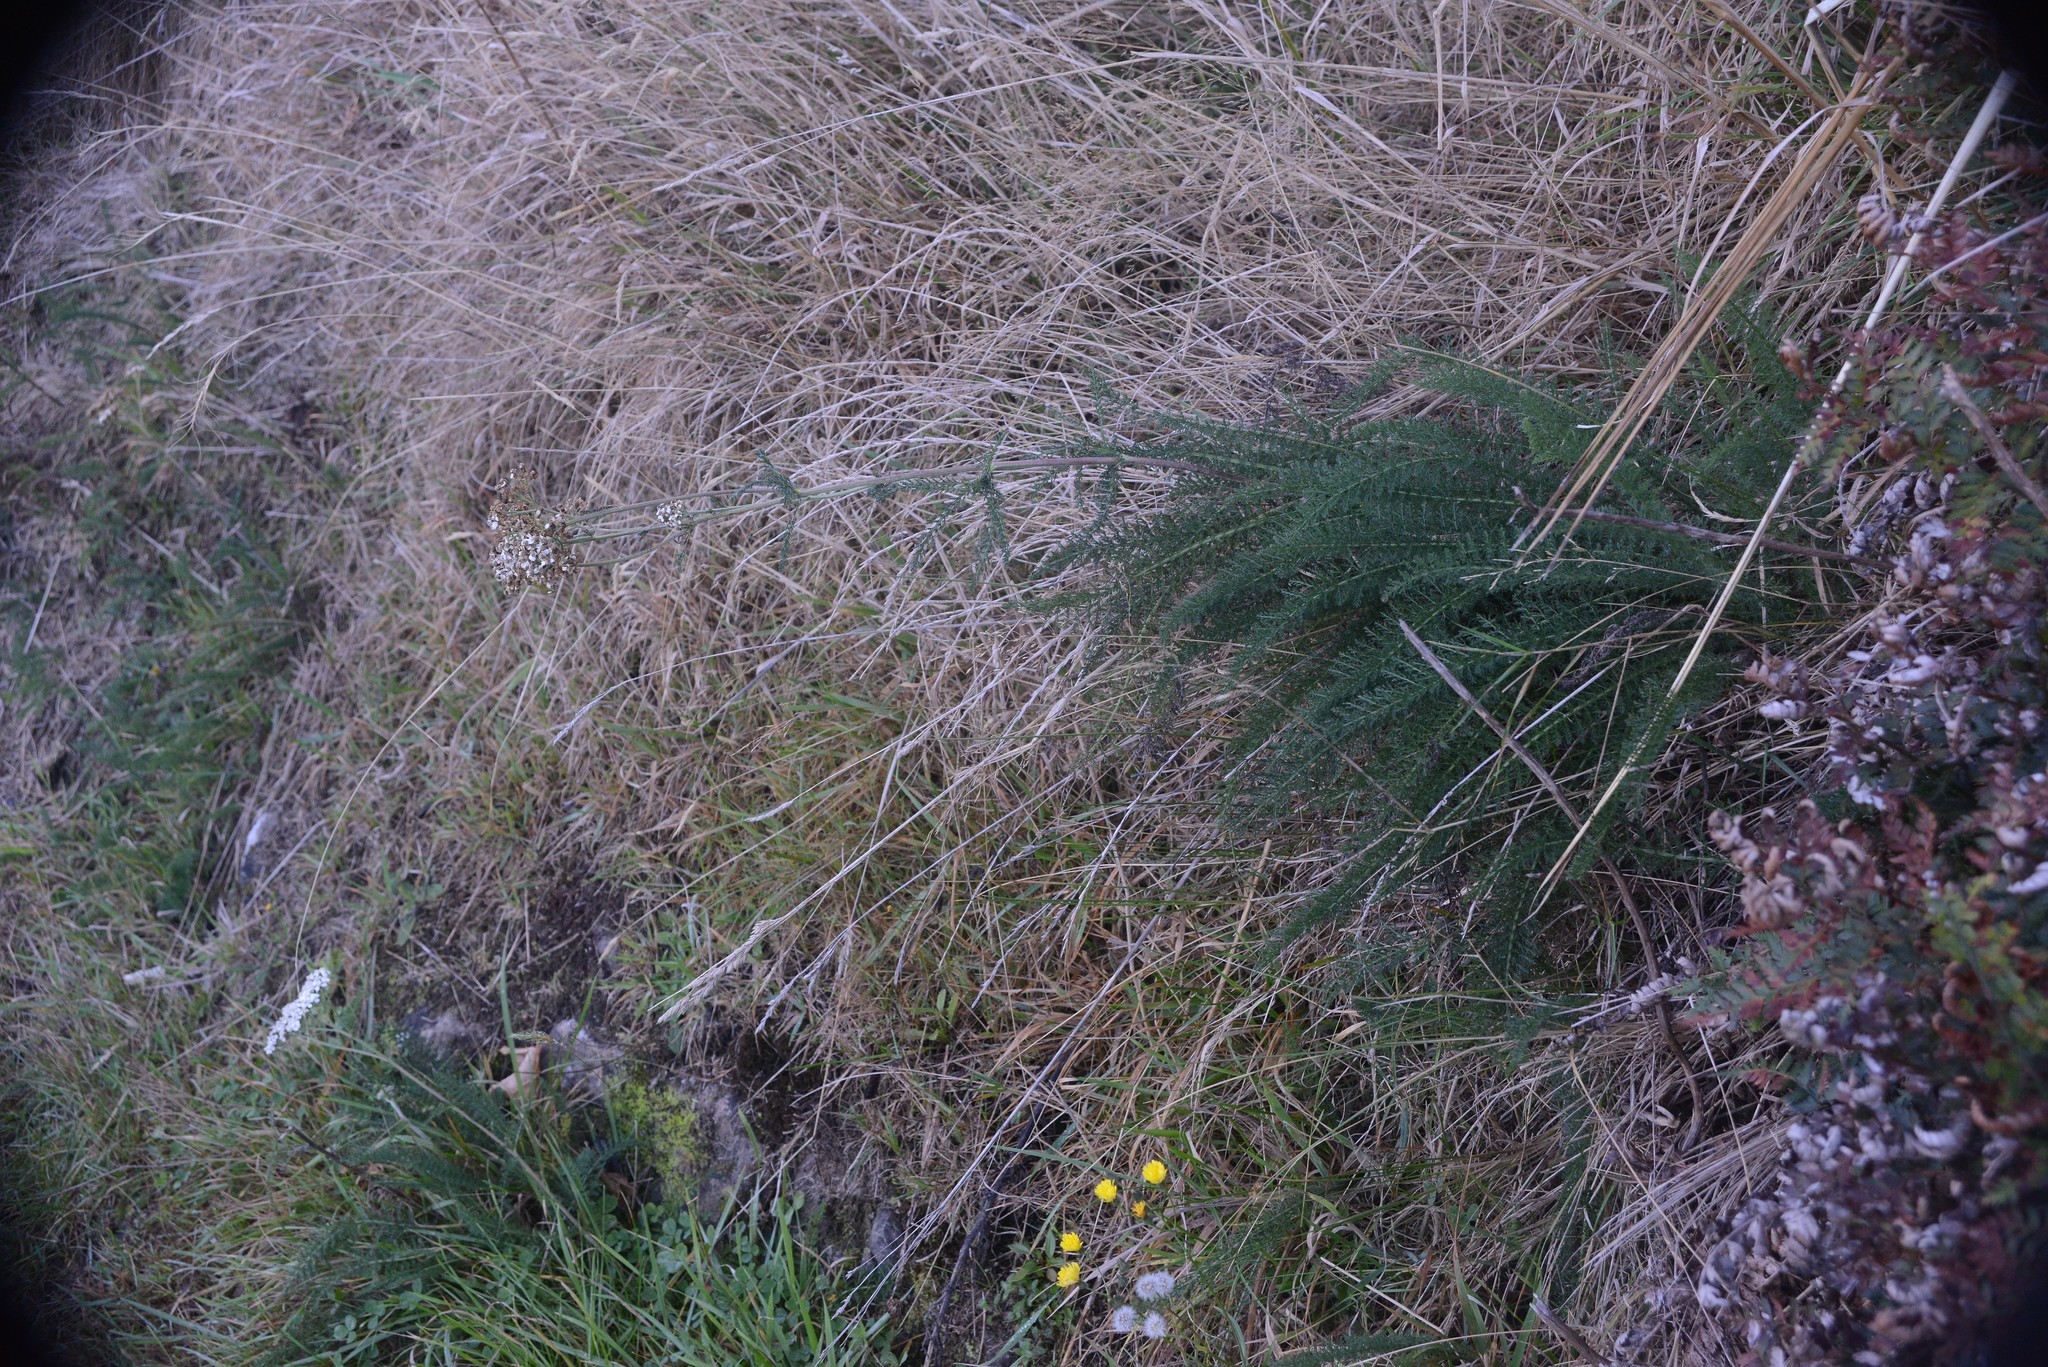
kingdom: Plantae
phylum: Tracheophyta
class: Magnoliopsida
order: Asterales
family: Asteraceae
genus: Achillea
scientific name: Achillea millefolium
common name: Yarrow
